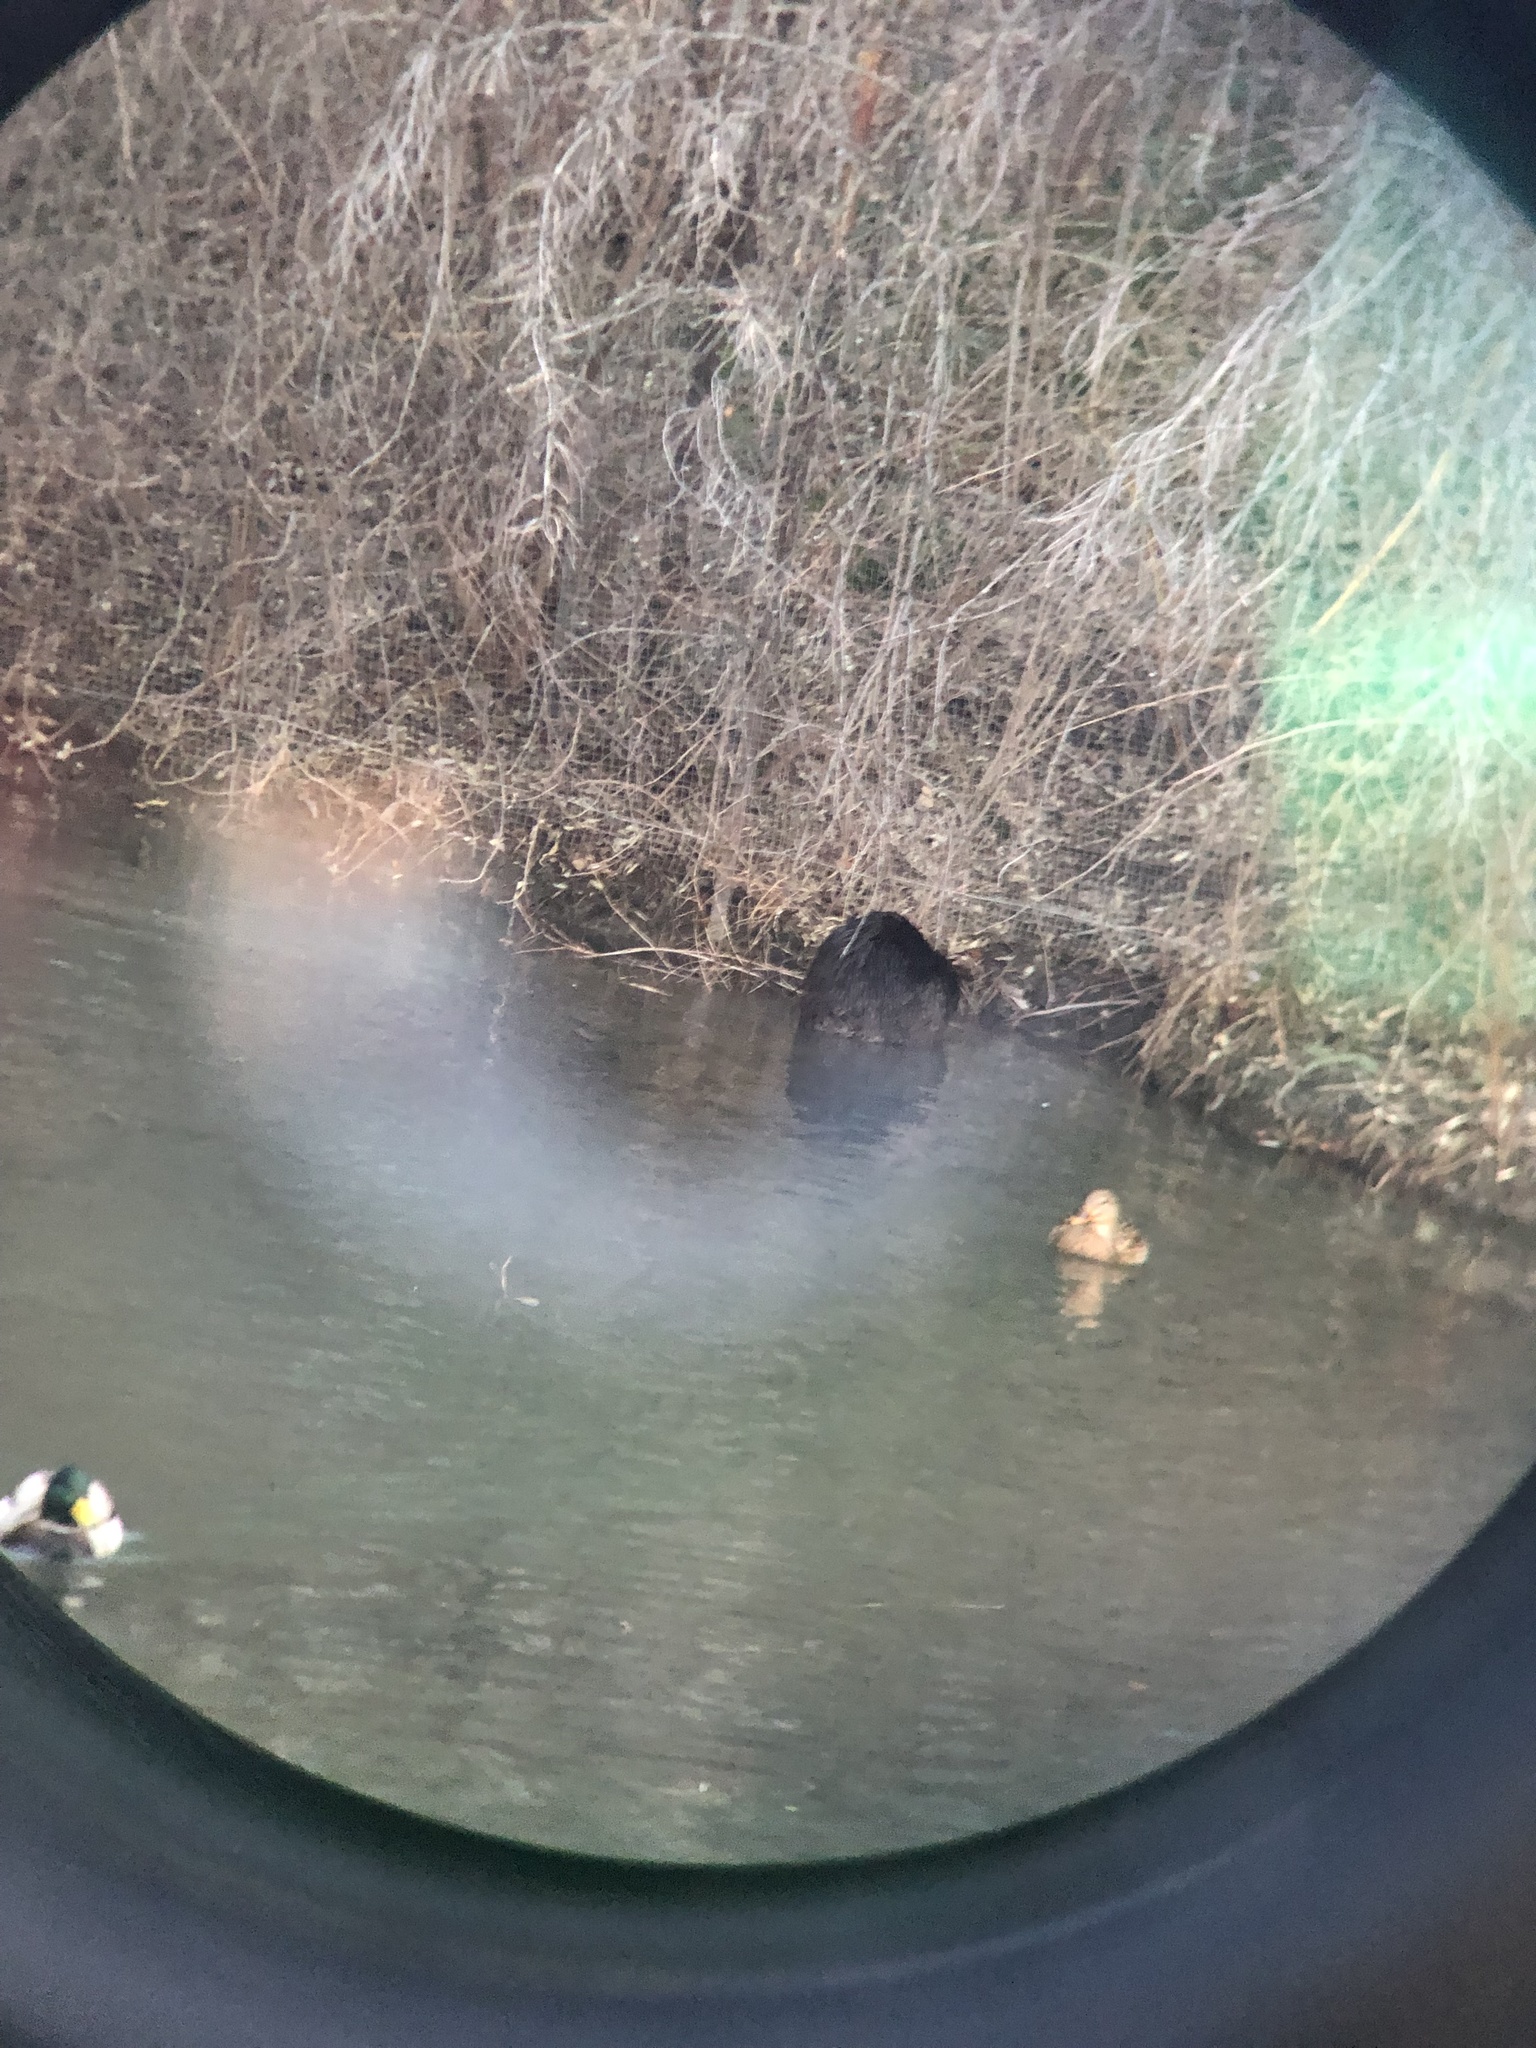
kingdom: Animalia
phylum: Chordata
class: Mammalia
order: Rodentia
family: Castoridae
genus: Castor
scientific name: Castor canadensis
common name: American beaver
